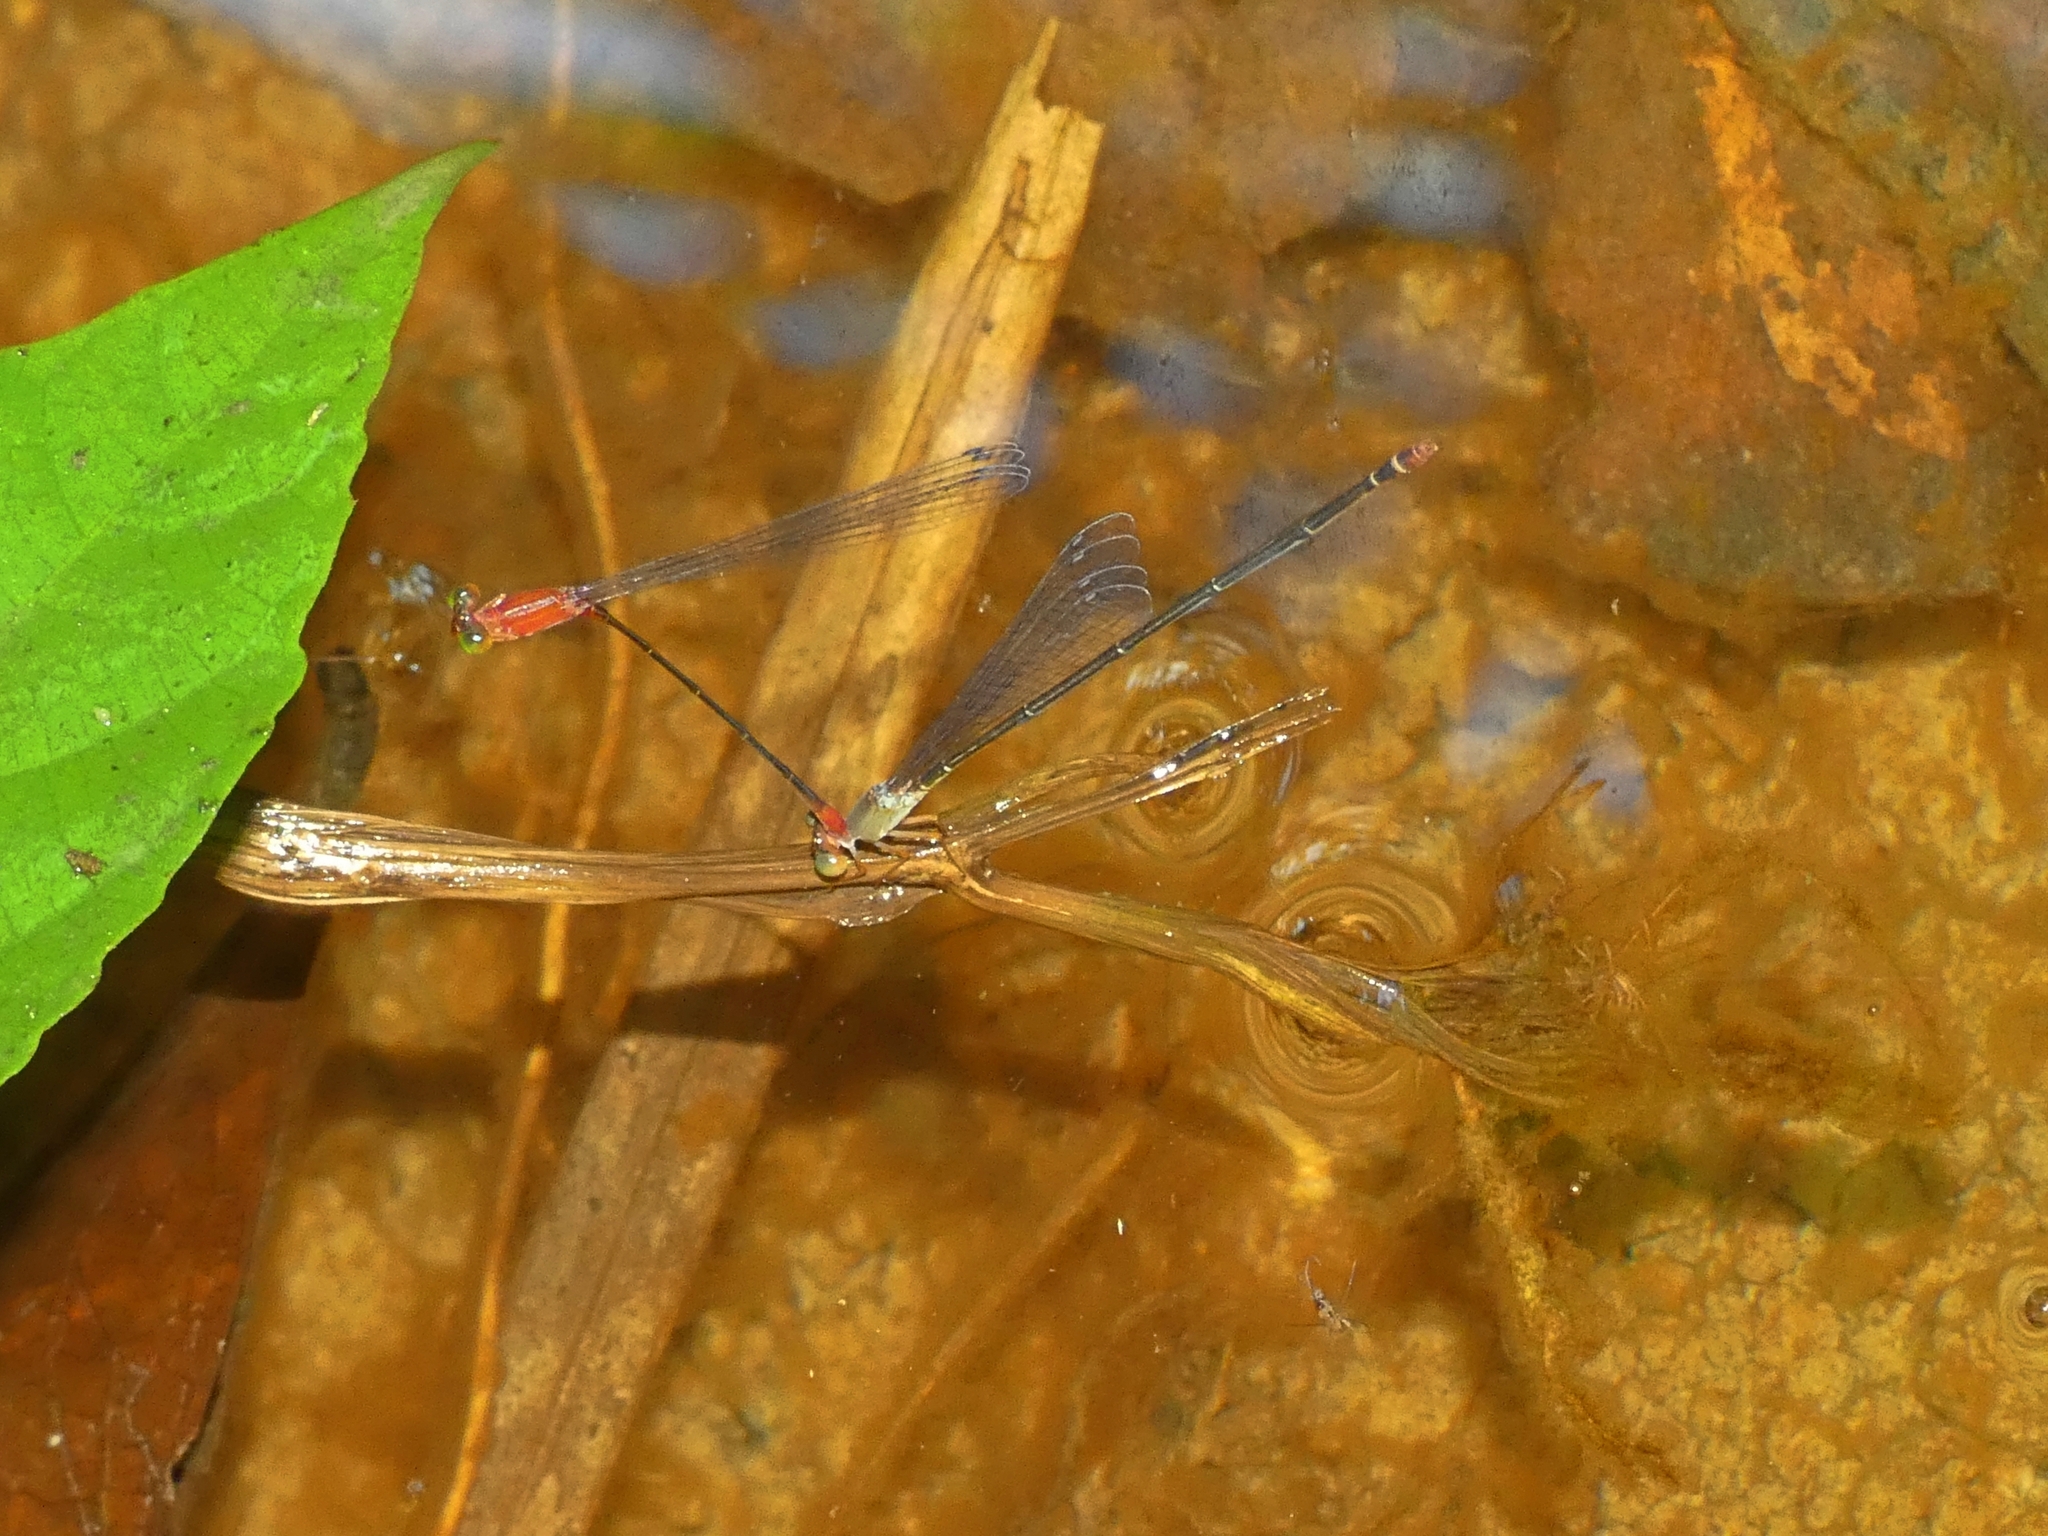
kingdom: Animalia
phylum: Arthropoda
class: Insecta
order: Odonata
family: Coenagrionidae
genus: Teinobasis
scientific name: Teinobasis rufithorax
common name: Red-breasted longtail
